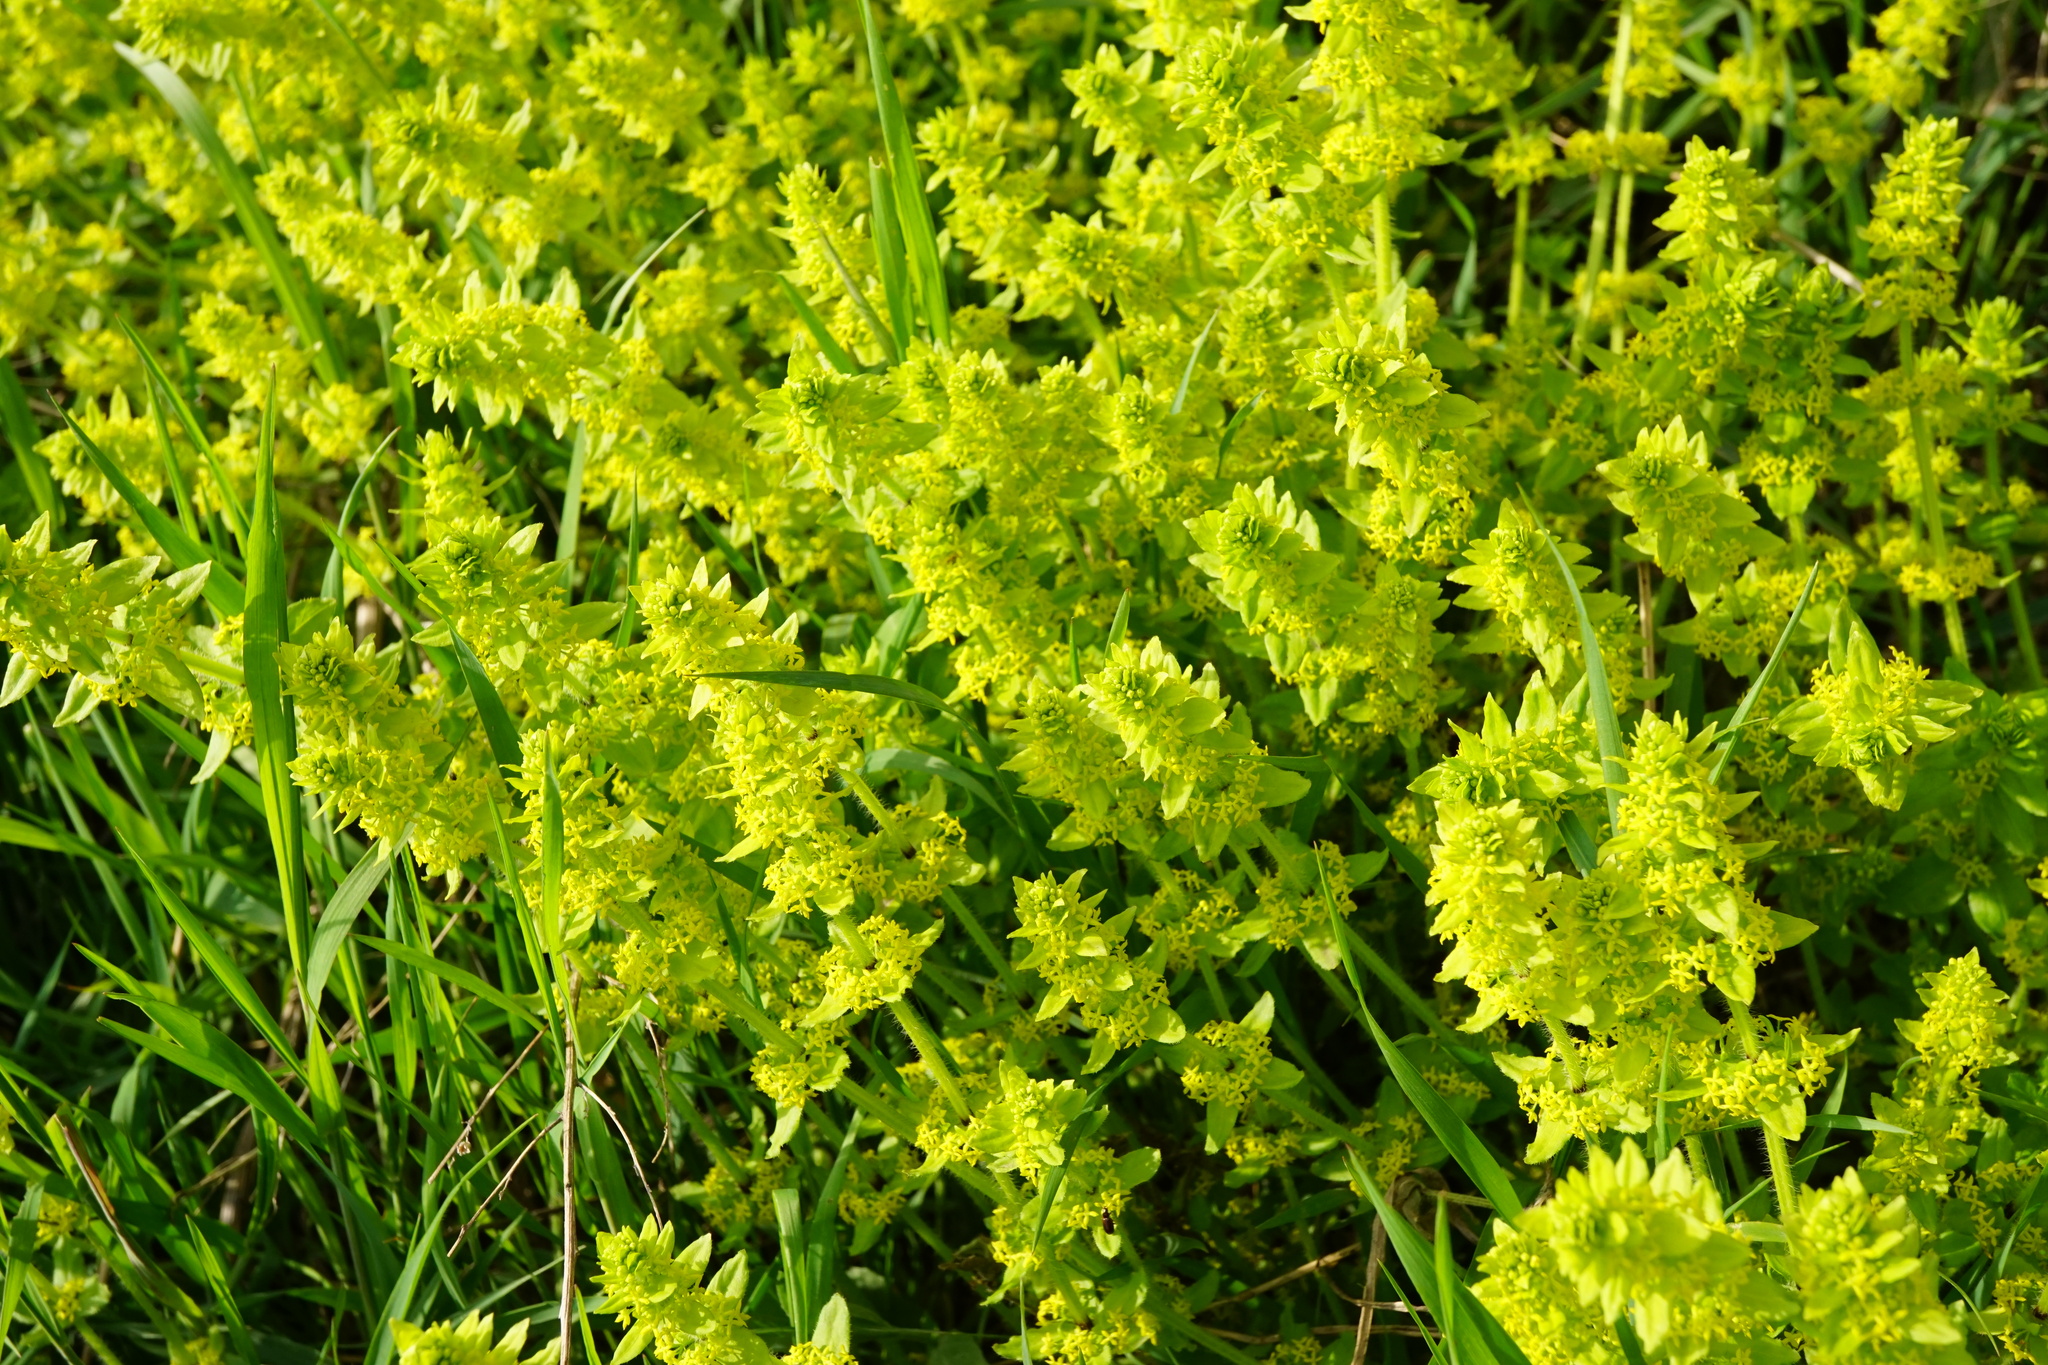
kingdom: Plantae
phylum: Tracheophyta
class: Magnoliopsida
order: Gentianales
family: Rubiaceae
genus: Cruciata
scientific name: Cruciata laevipes
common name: Crosswort
